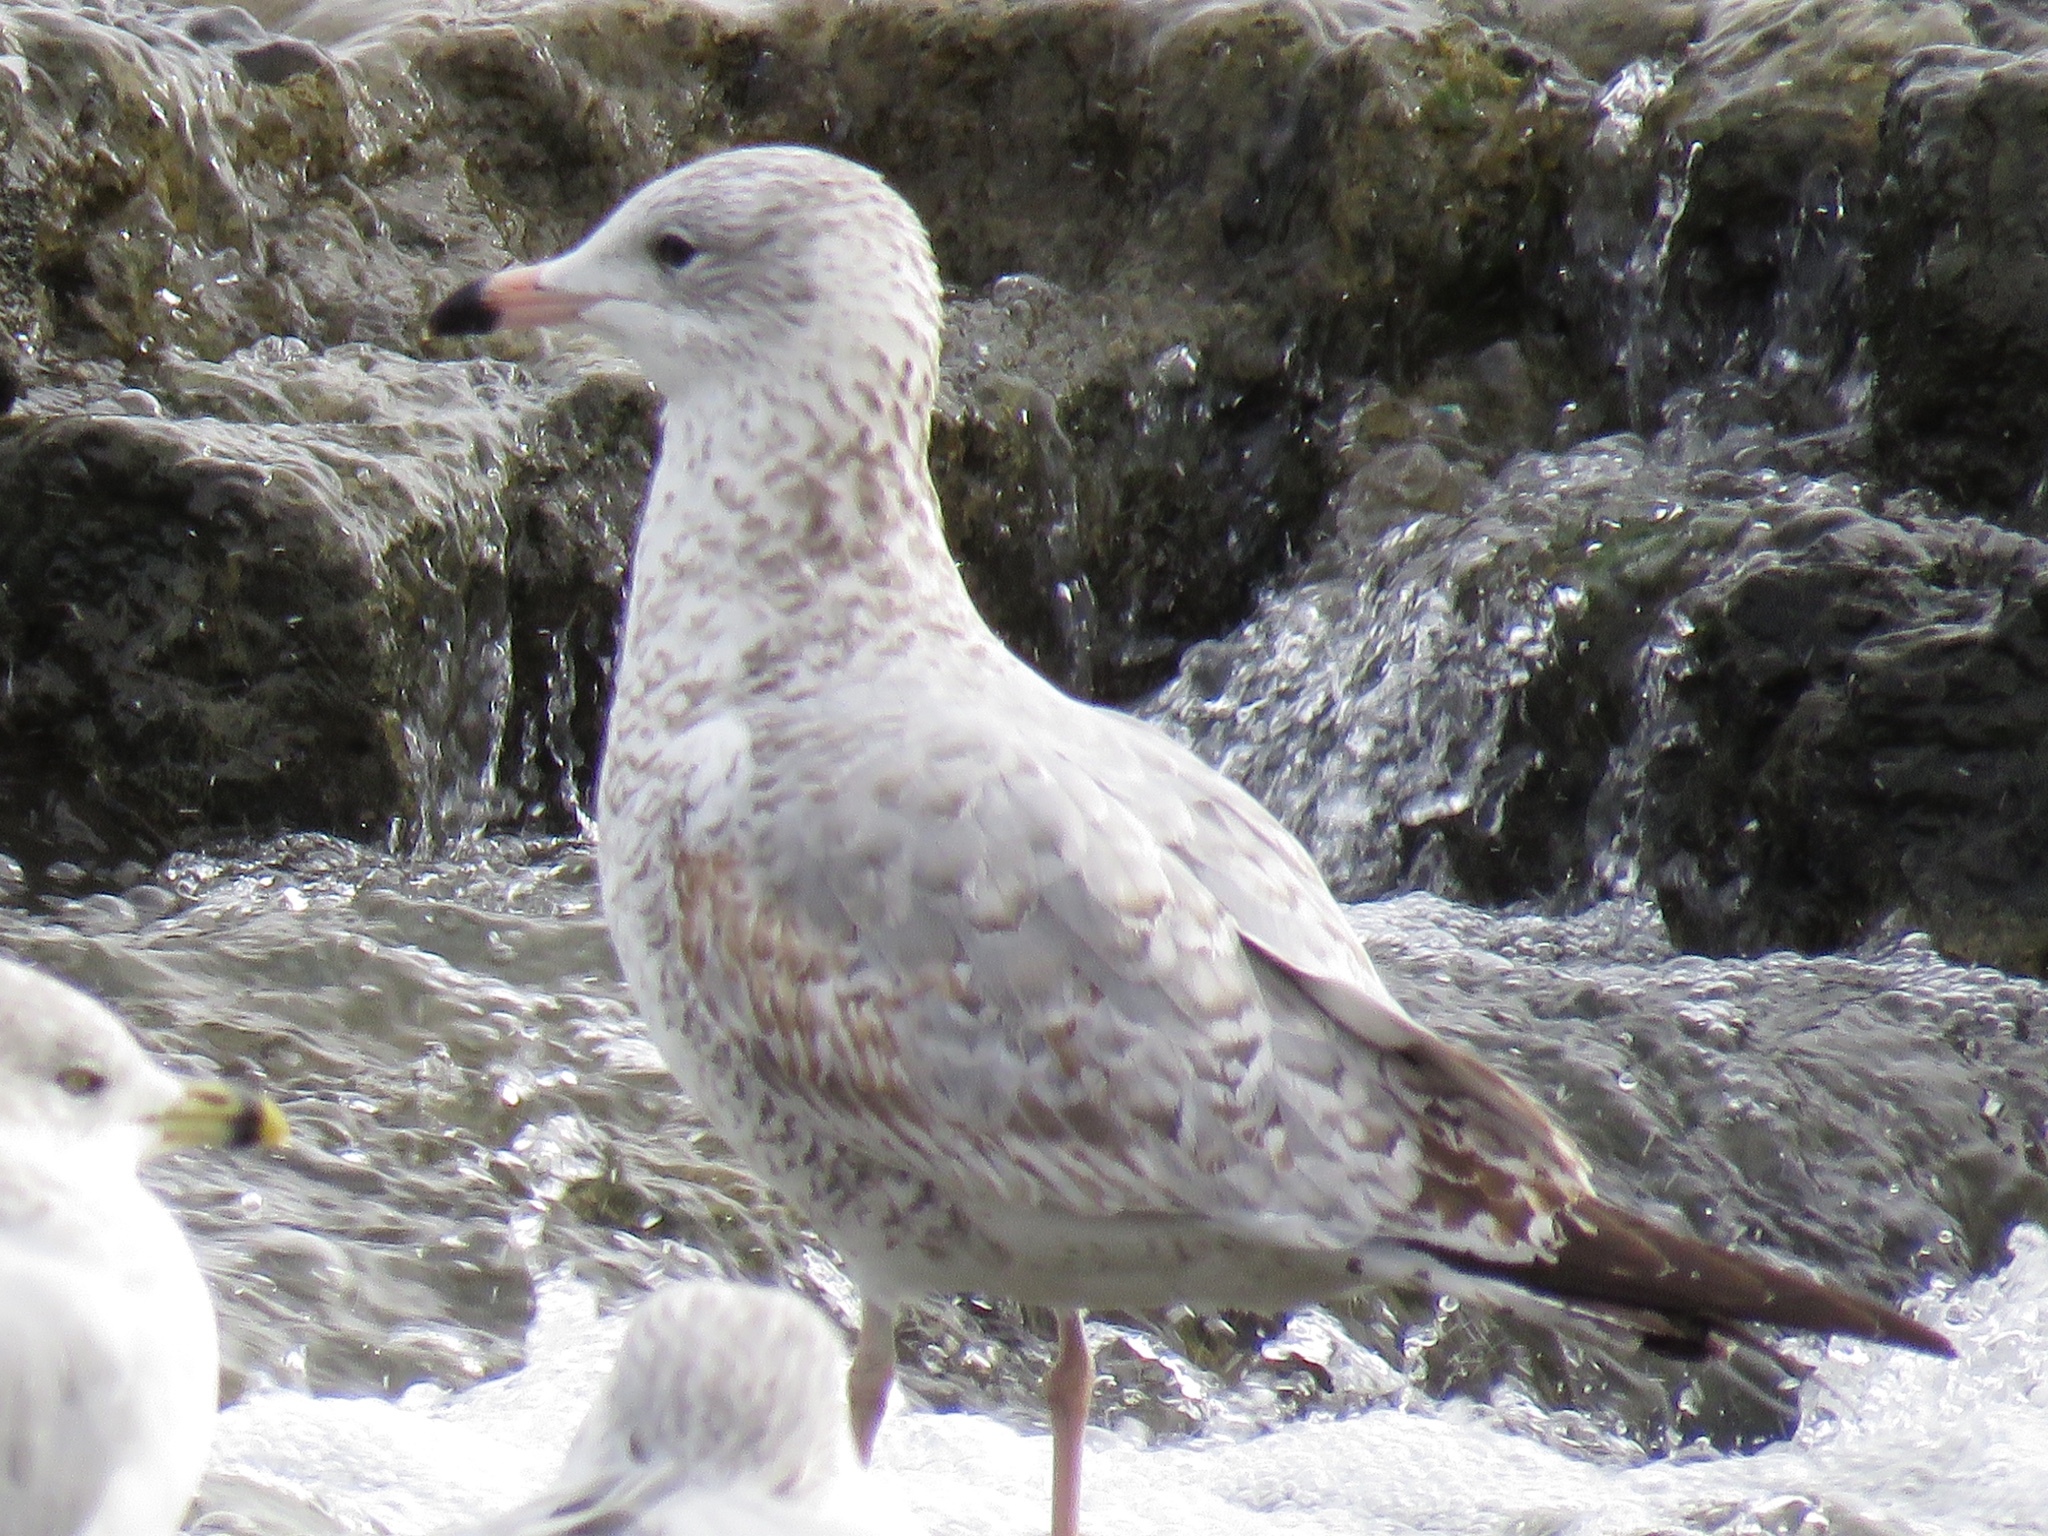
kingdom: Animalia
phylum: Chordata
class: Aves
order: Charadriiformes
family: Laridae
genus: Larus
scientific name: Larus delawarensis
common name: Ring-billed gull
